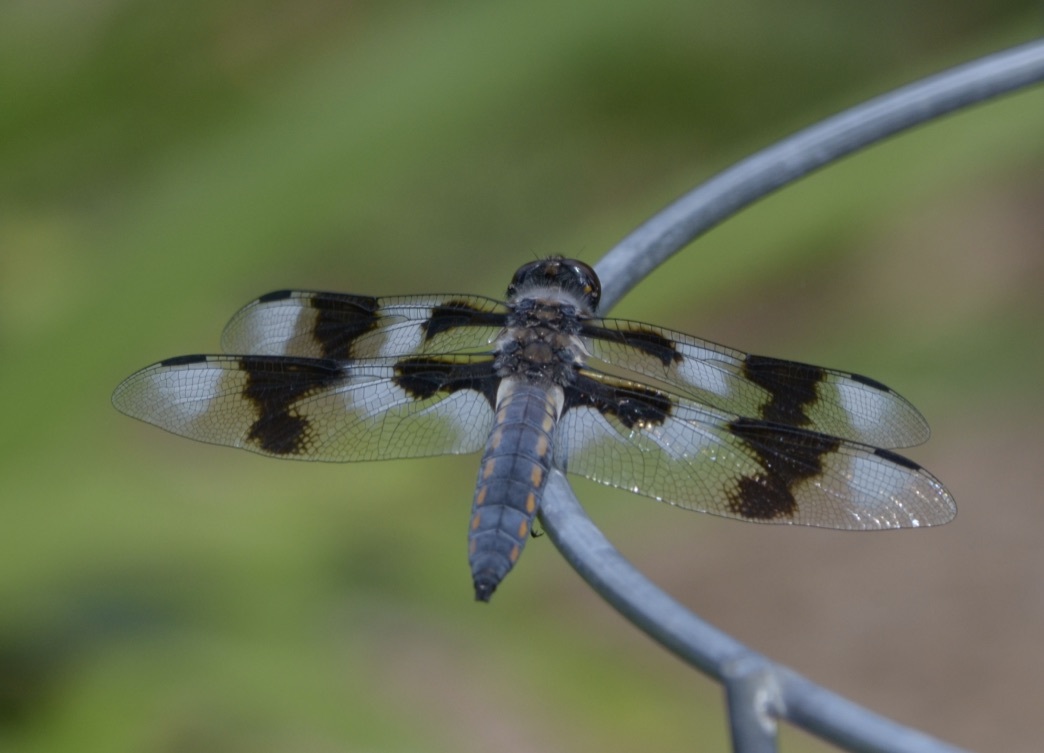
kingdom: Animalia
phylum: Arthropoda
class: Insecta
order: Odonata
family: Libellulidae
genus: Libellula
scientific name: Libellula forensis
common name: Eight-spotted skimmer
